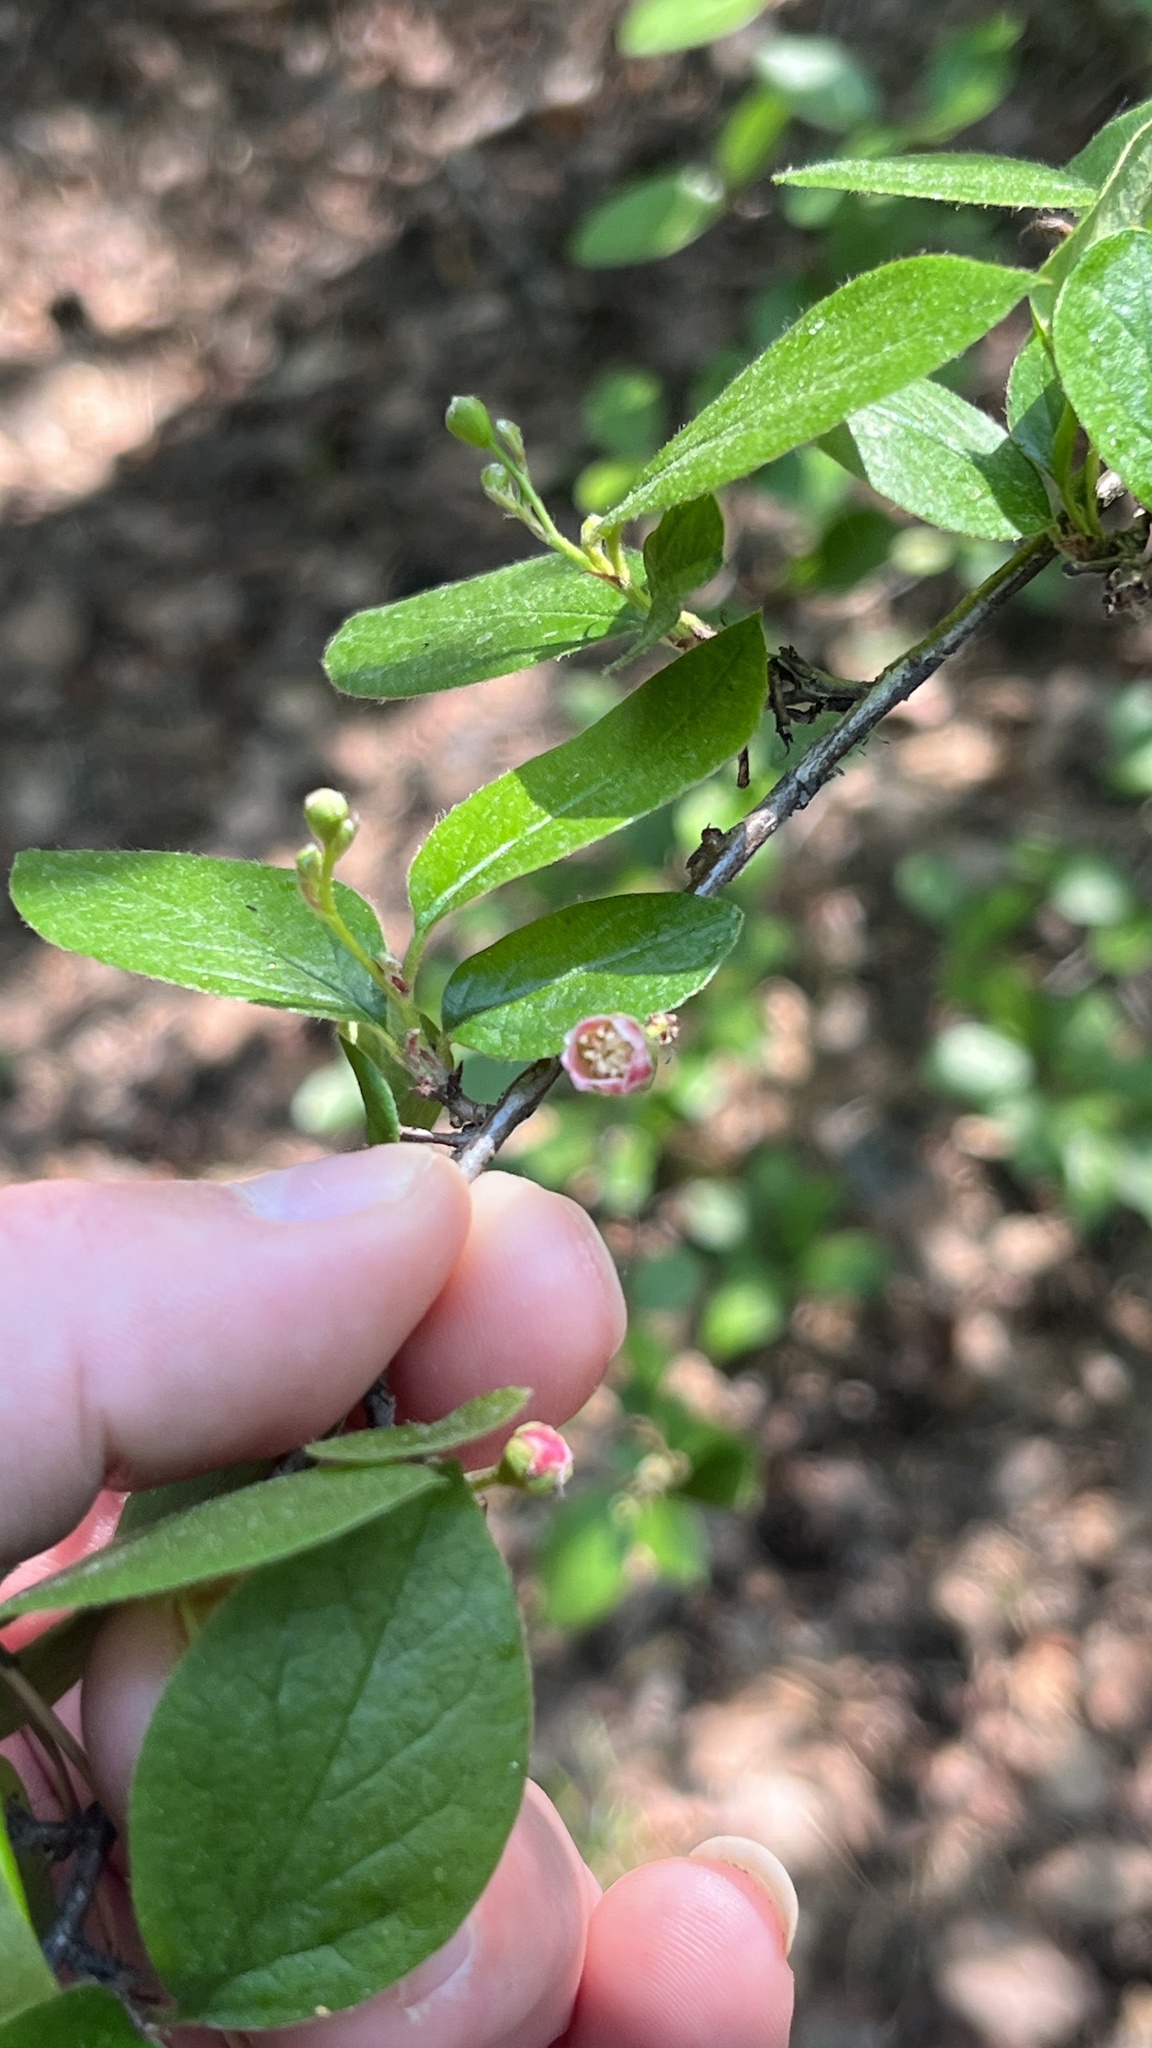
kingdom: Plantae
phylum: Tracheophyta
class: Magnoliopsida
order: Rosales
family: Rosaceae
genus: Cotoneaster
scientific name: Cotoneaster acutifolius
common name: Peking cotoneaster
